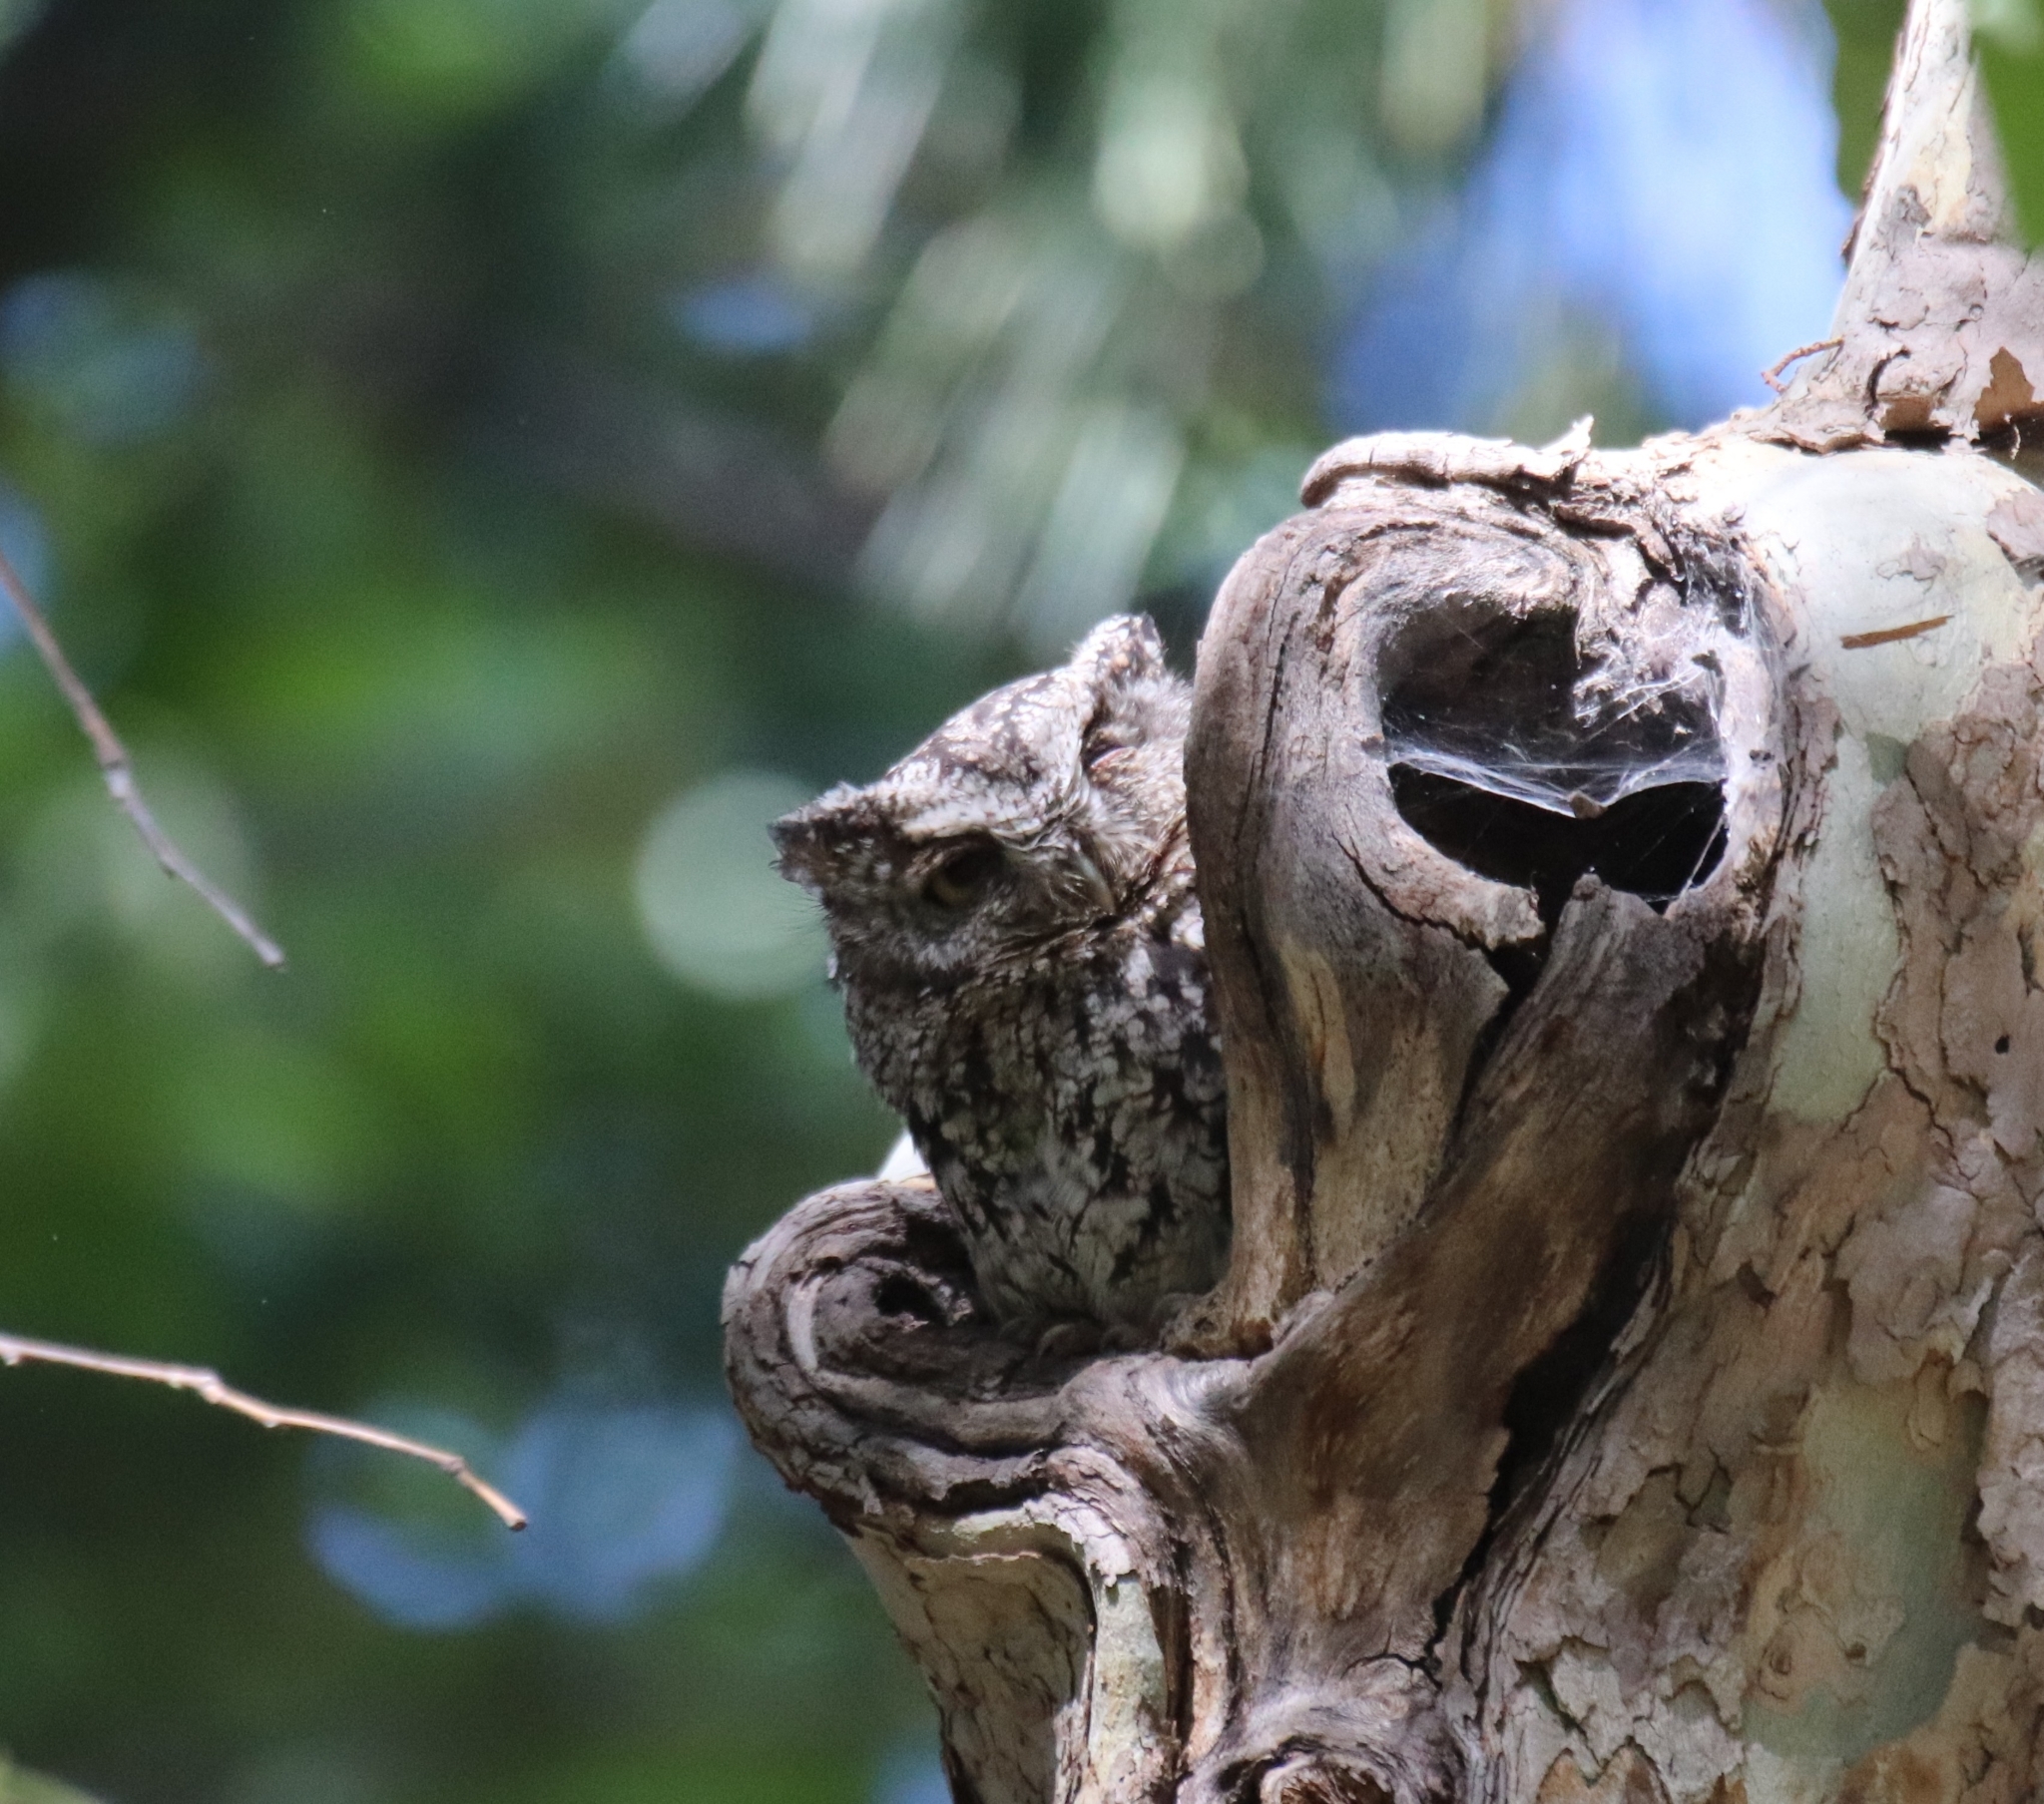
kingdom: Animalia
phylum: Chordata
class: Aves
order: Strigiformes
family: Strigidae
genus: Megascops
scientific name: Megascops trichopsis
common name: Whiskered screech-owl
